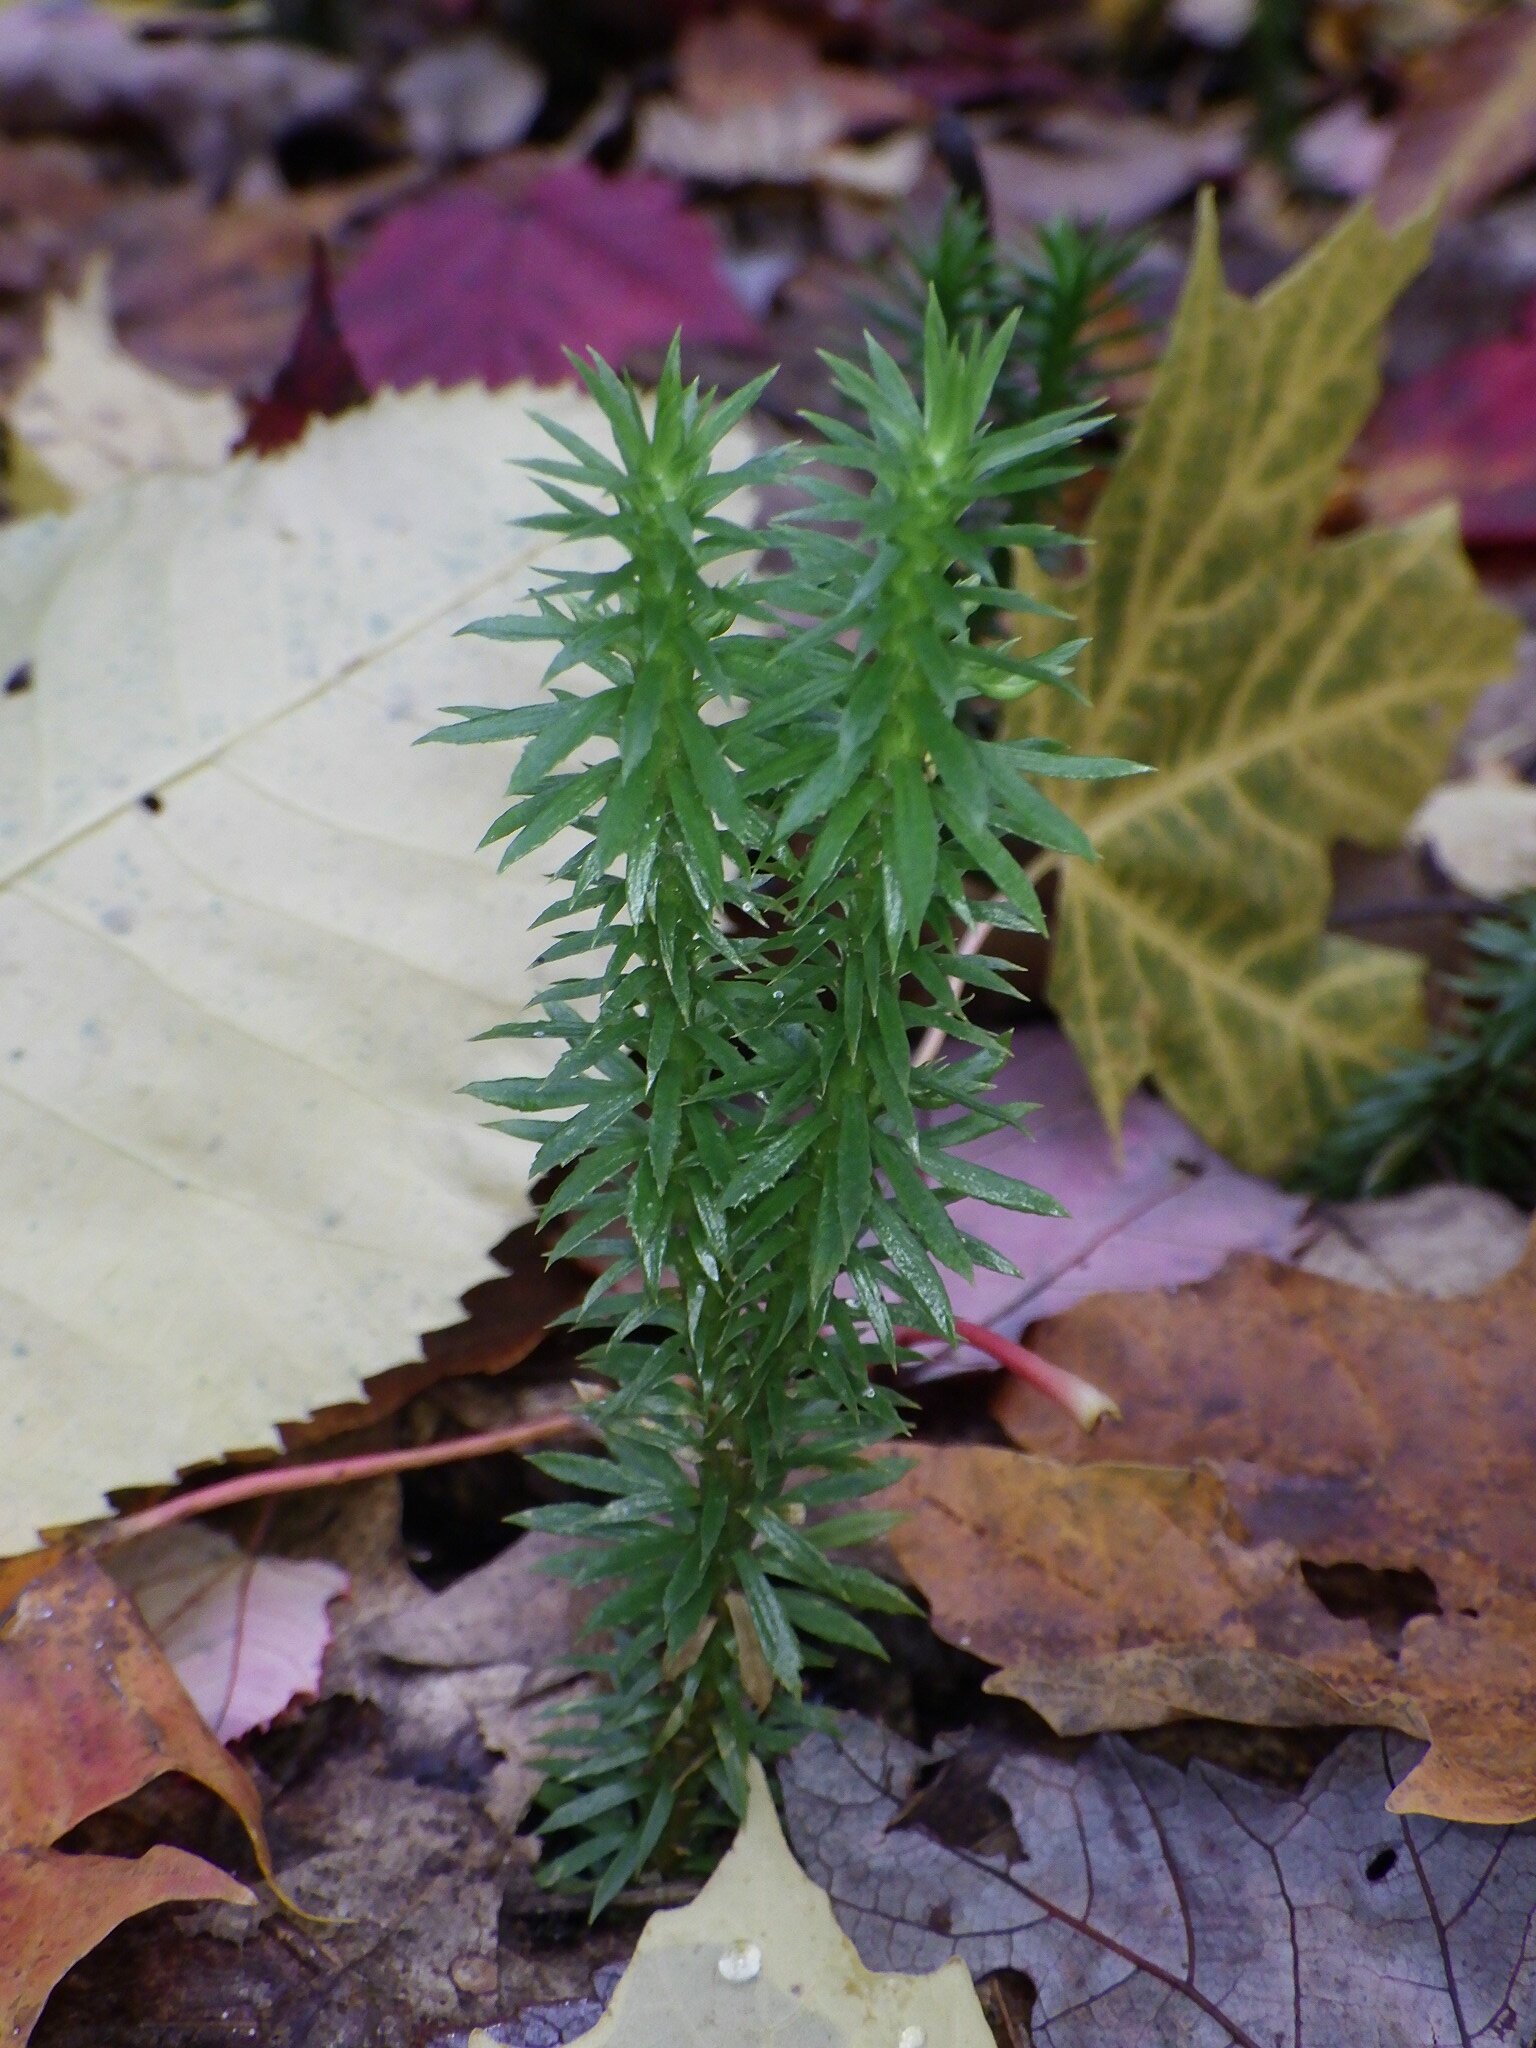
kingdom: Plantae
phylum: Tracheophyta
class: Lycopodiopsida
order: Lycopodiales
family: Lycopodiaceae
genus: Huperzia
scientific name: Huperzia lucidula
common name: Shining clubmoss
